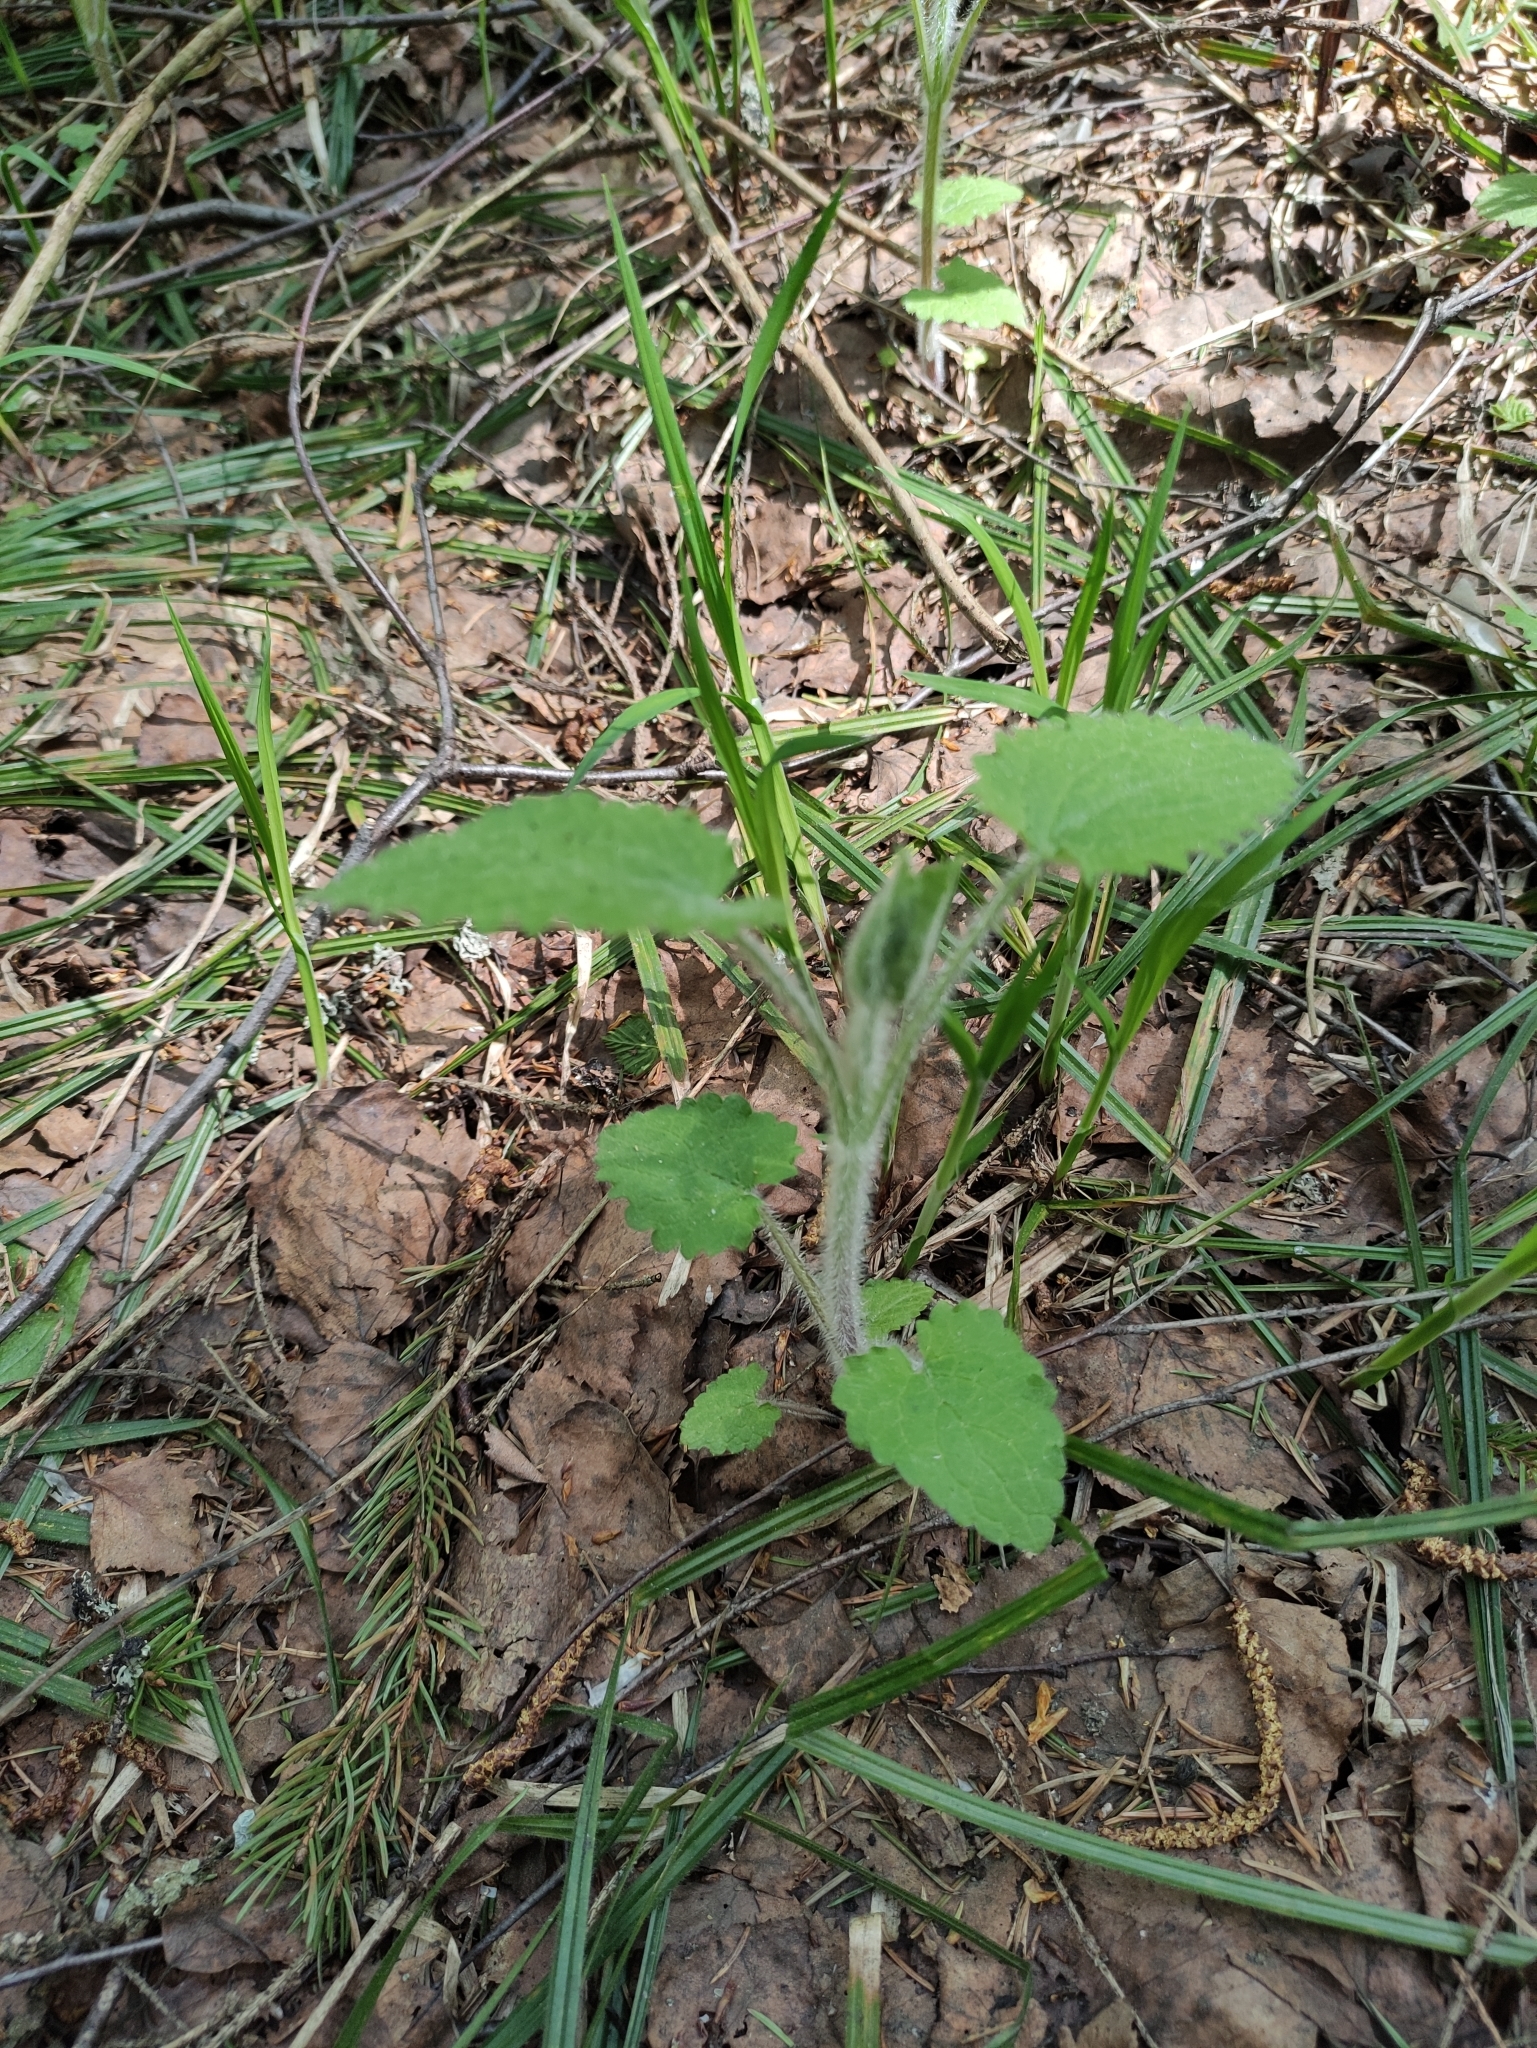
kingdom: Plantae
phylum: Tracheophyta
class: Magnoliopsida
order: Lamiales
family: Lamiaceae
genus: Stachys
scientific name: Stachys sylvatica
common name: Hedge woundwort
